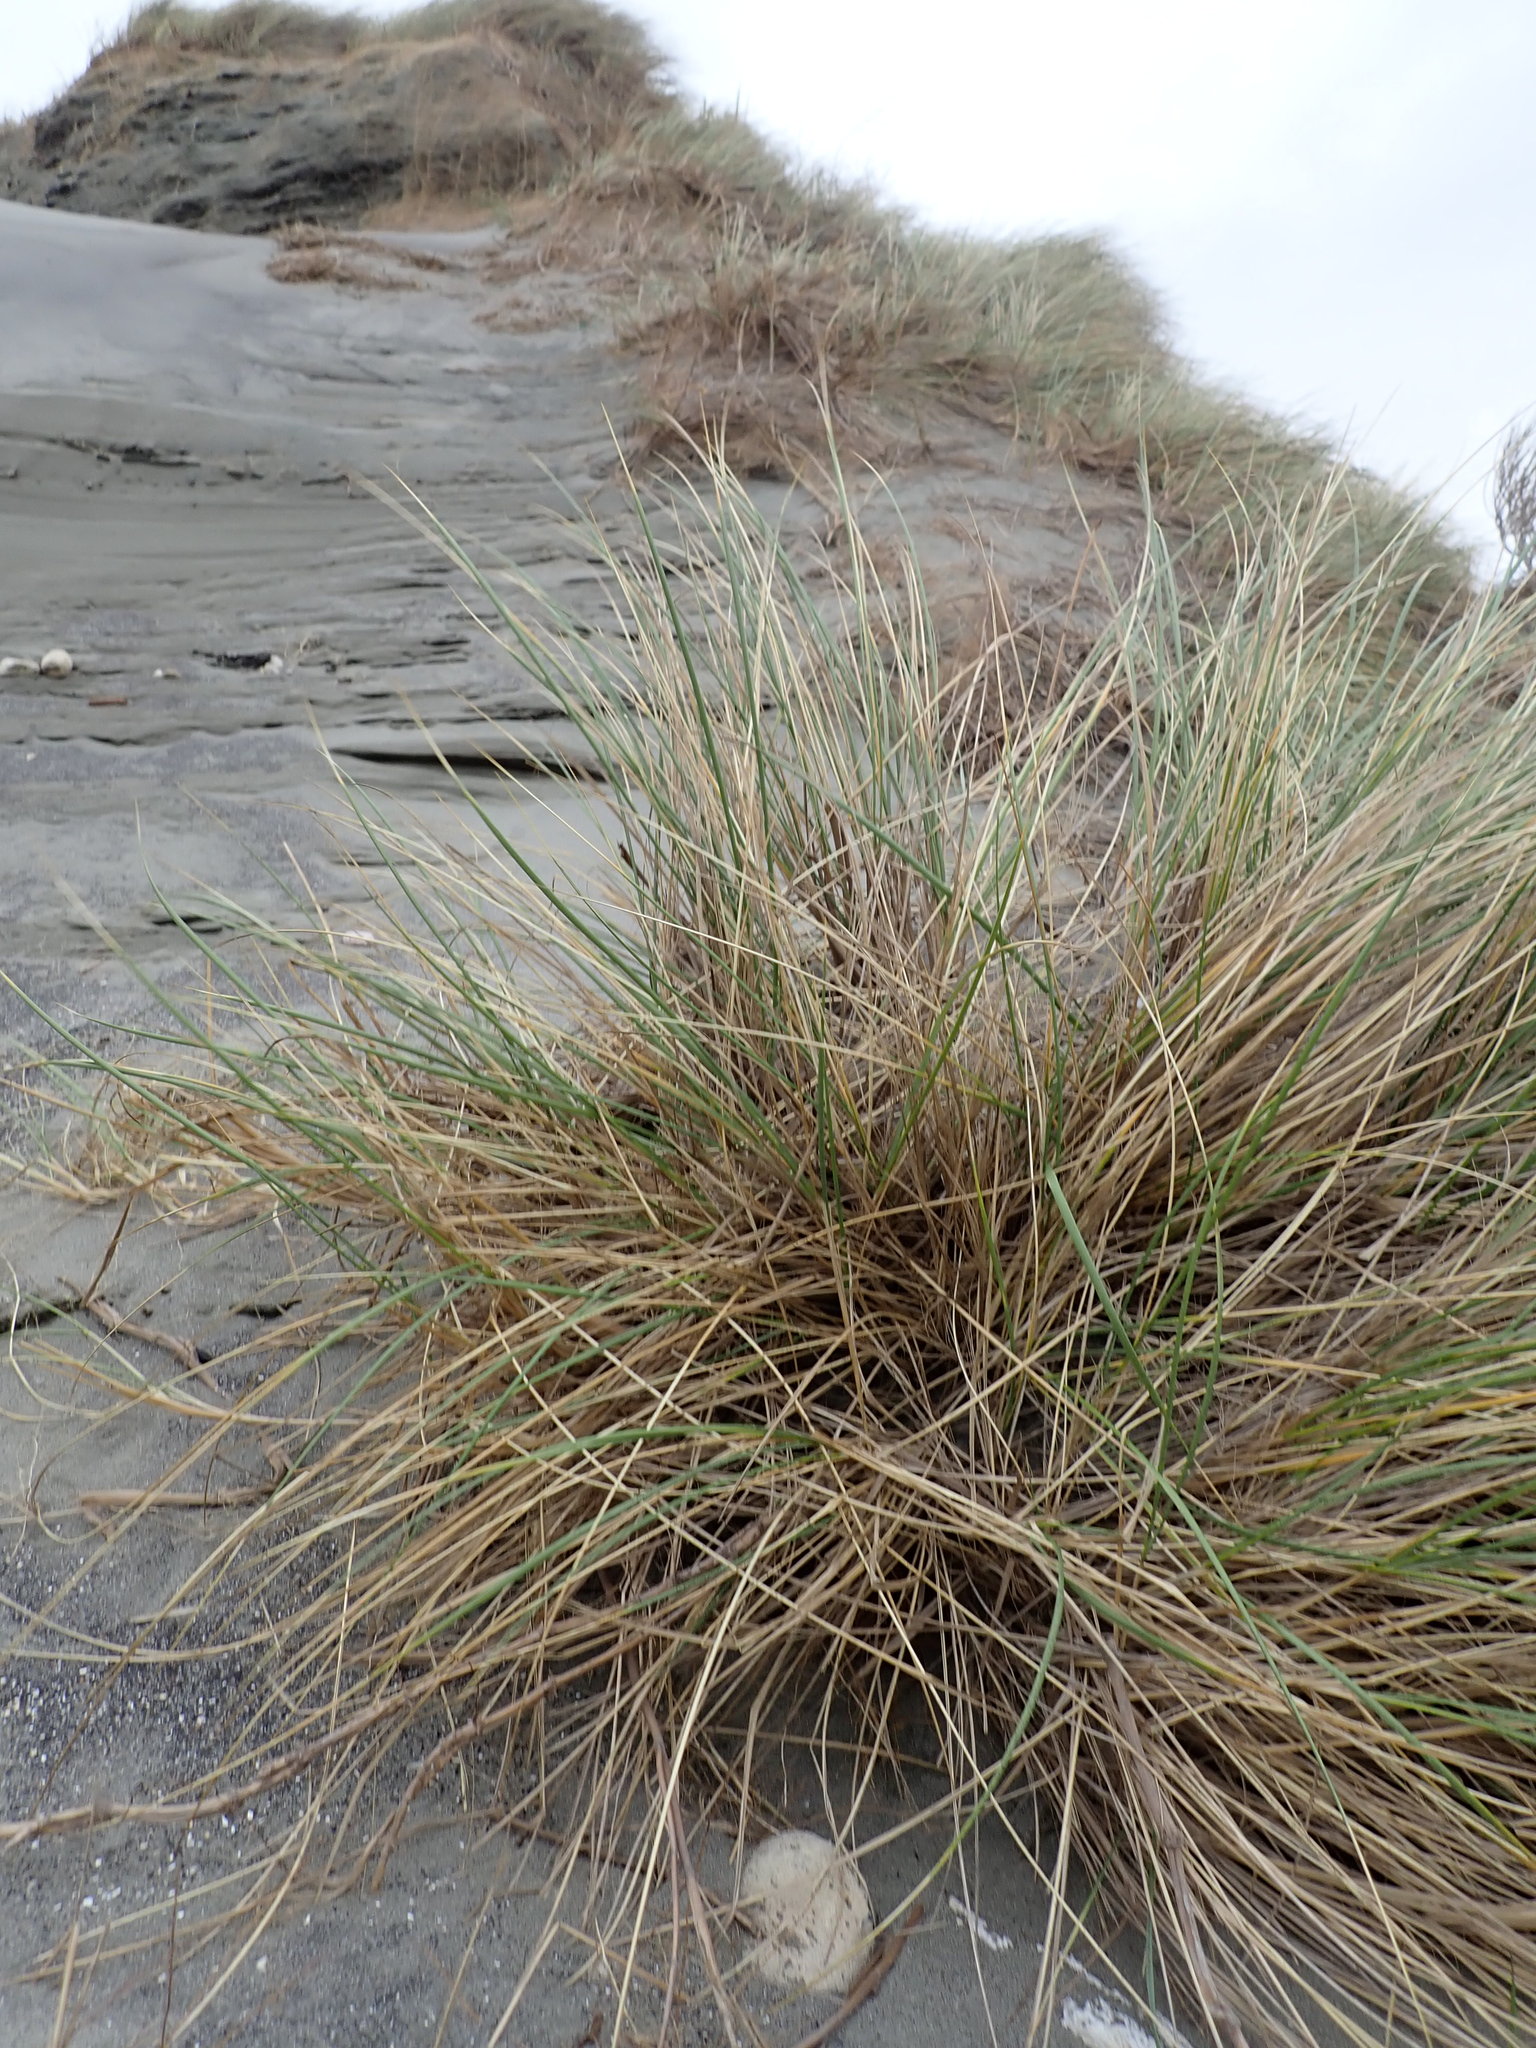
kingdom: Plantae
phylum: Tracheophyta
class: Liliopsida
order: Poales
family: Poaceae
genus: Calamagrostis
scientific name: Calamagrostis arenaria
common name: European beachgrass
